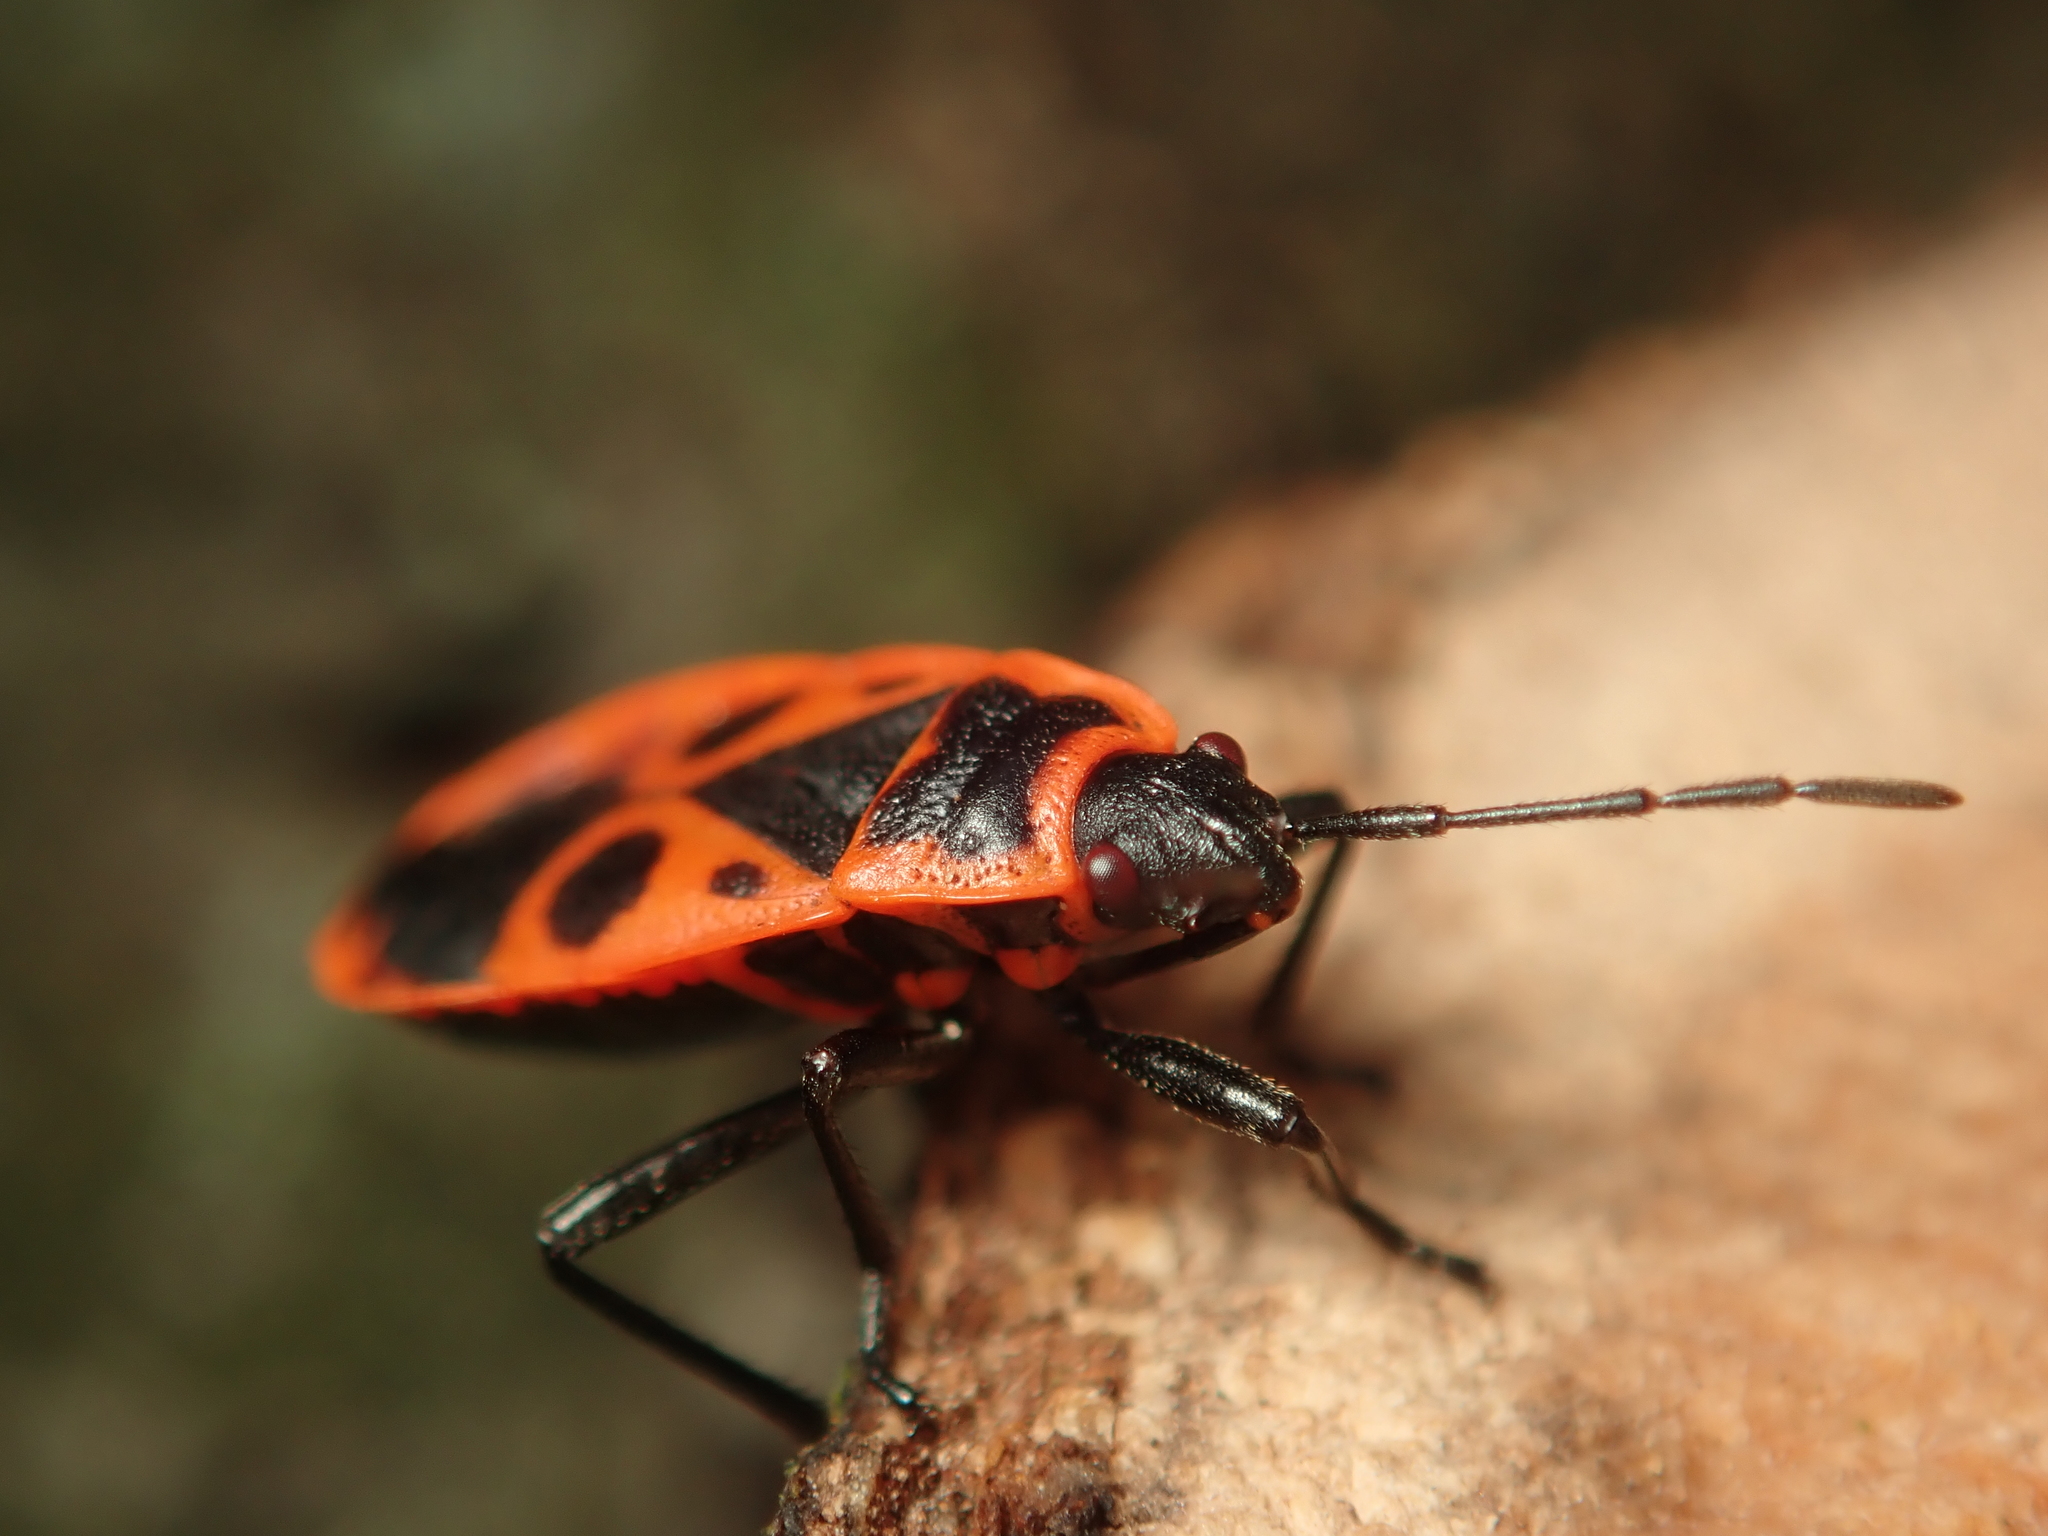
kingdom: Animalia
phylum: Arthropoda
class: Insecta
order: Hemiptera
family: Pyrrhocoridae
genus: Pyrrhocoris
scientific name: Pyrrhocoris apterus
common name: Firebug
